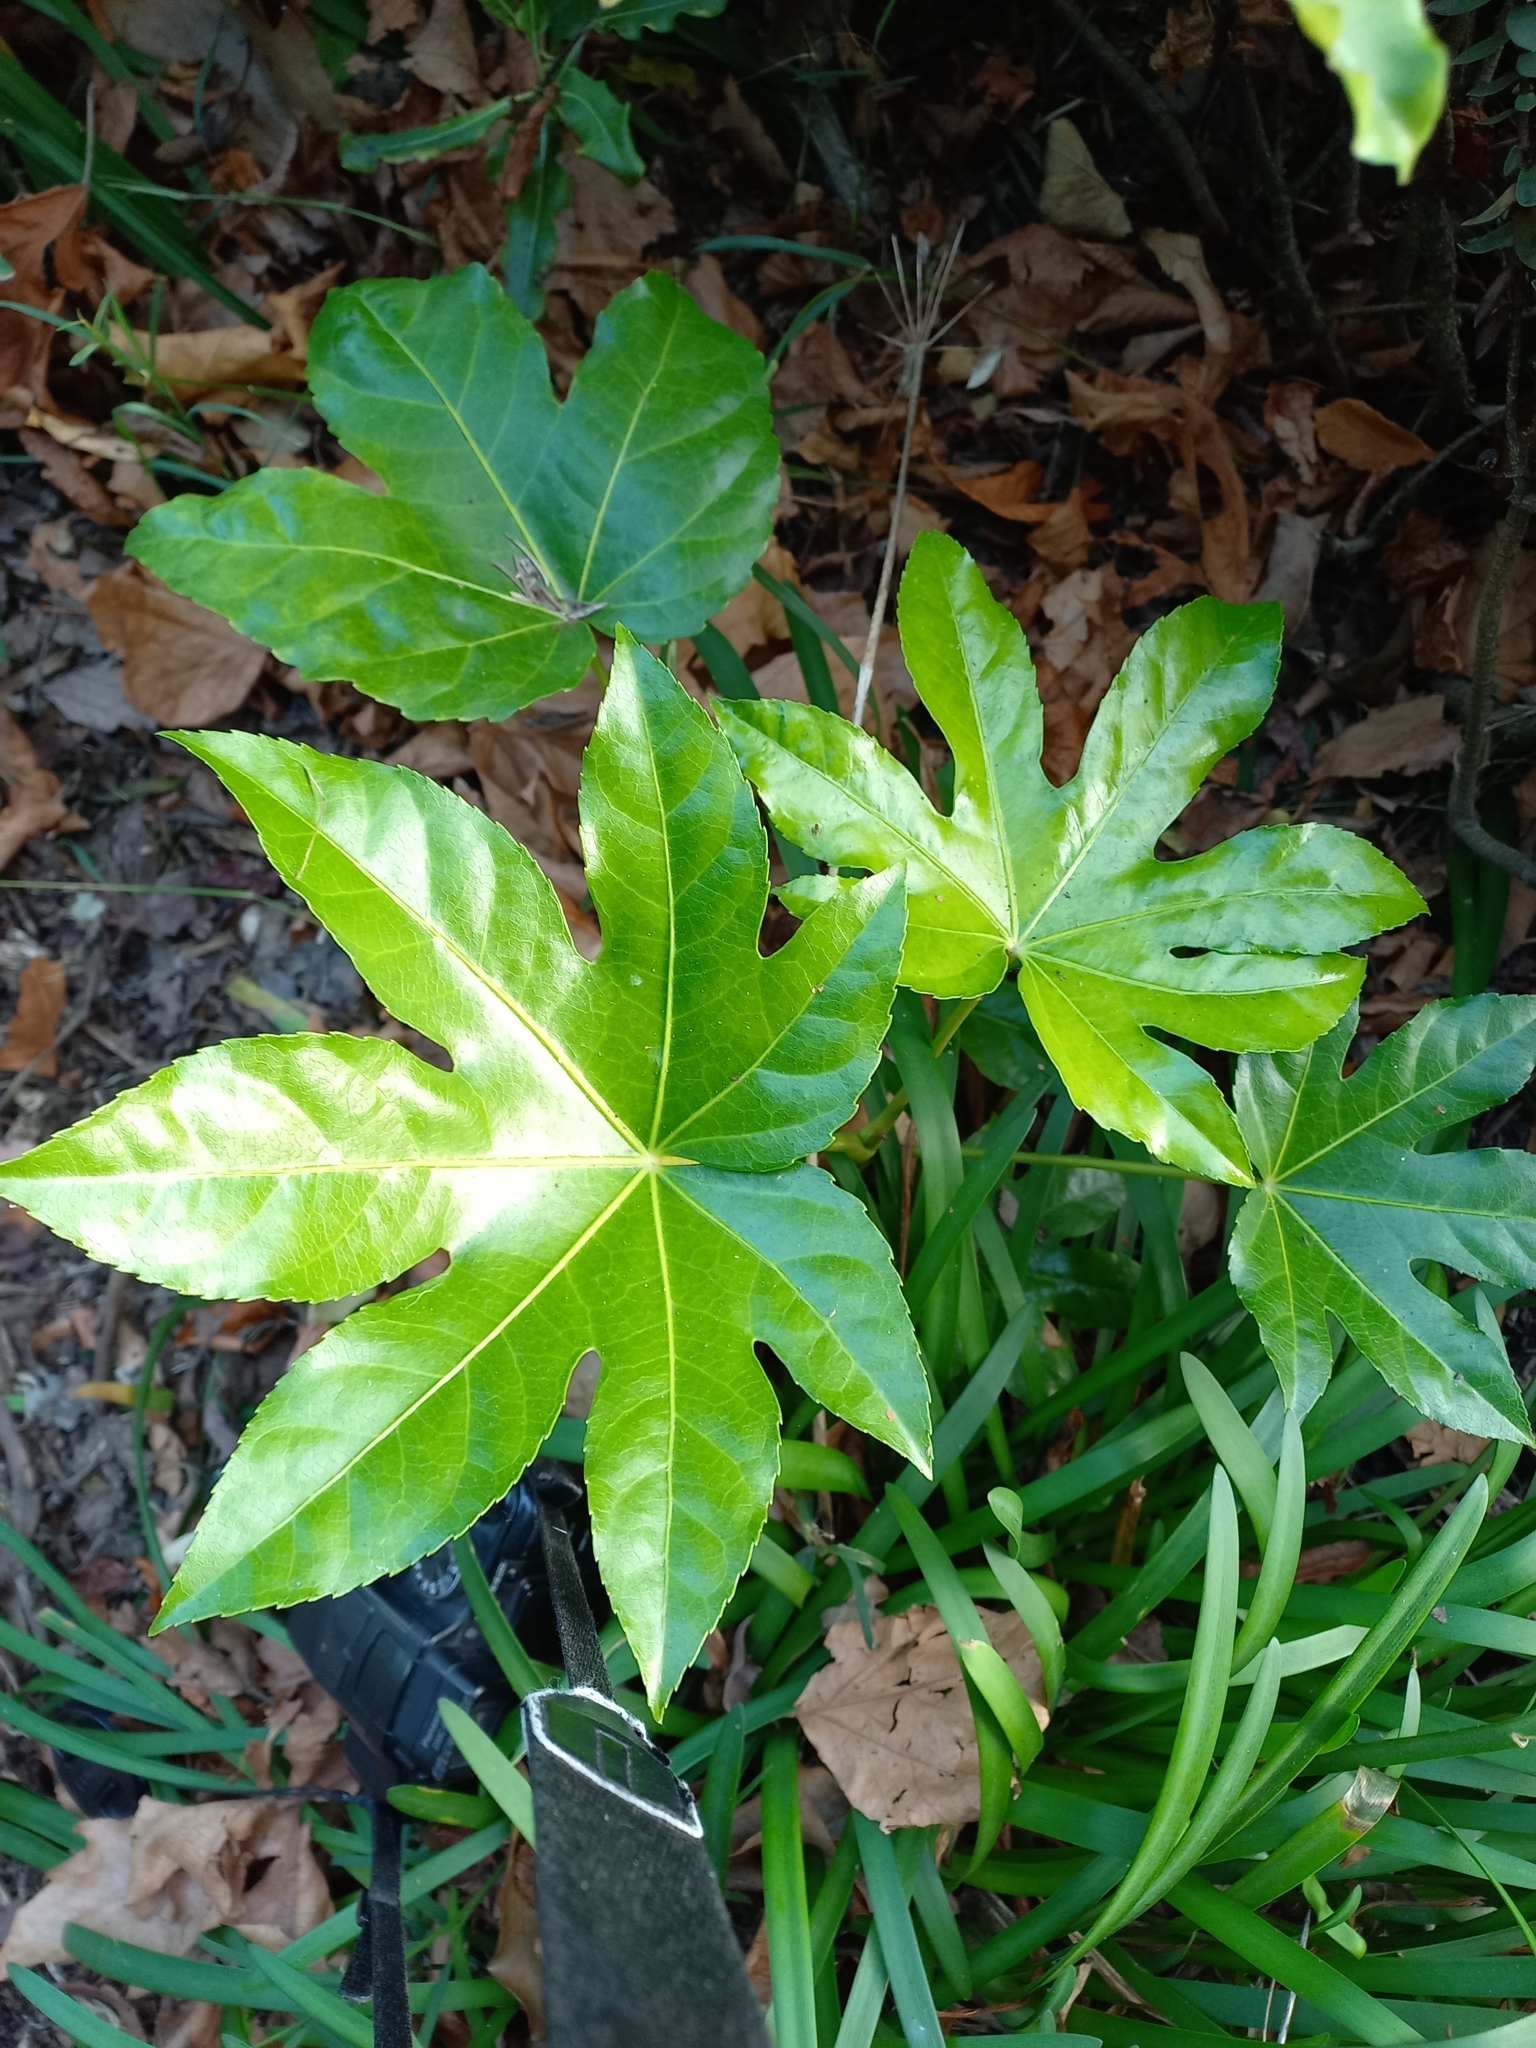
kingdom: Plantae
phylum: Tracheophyta
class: Magnoliopsida
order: Apiales
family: Araliaceae
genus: Fatsia
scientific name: Fatsia japonica
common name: Fatsia
